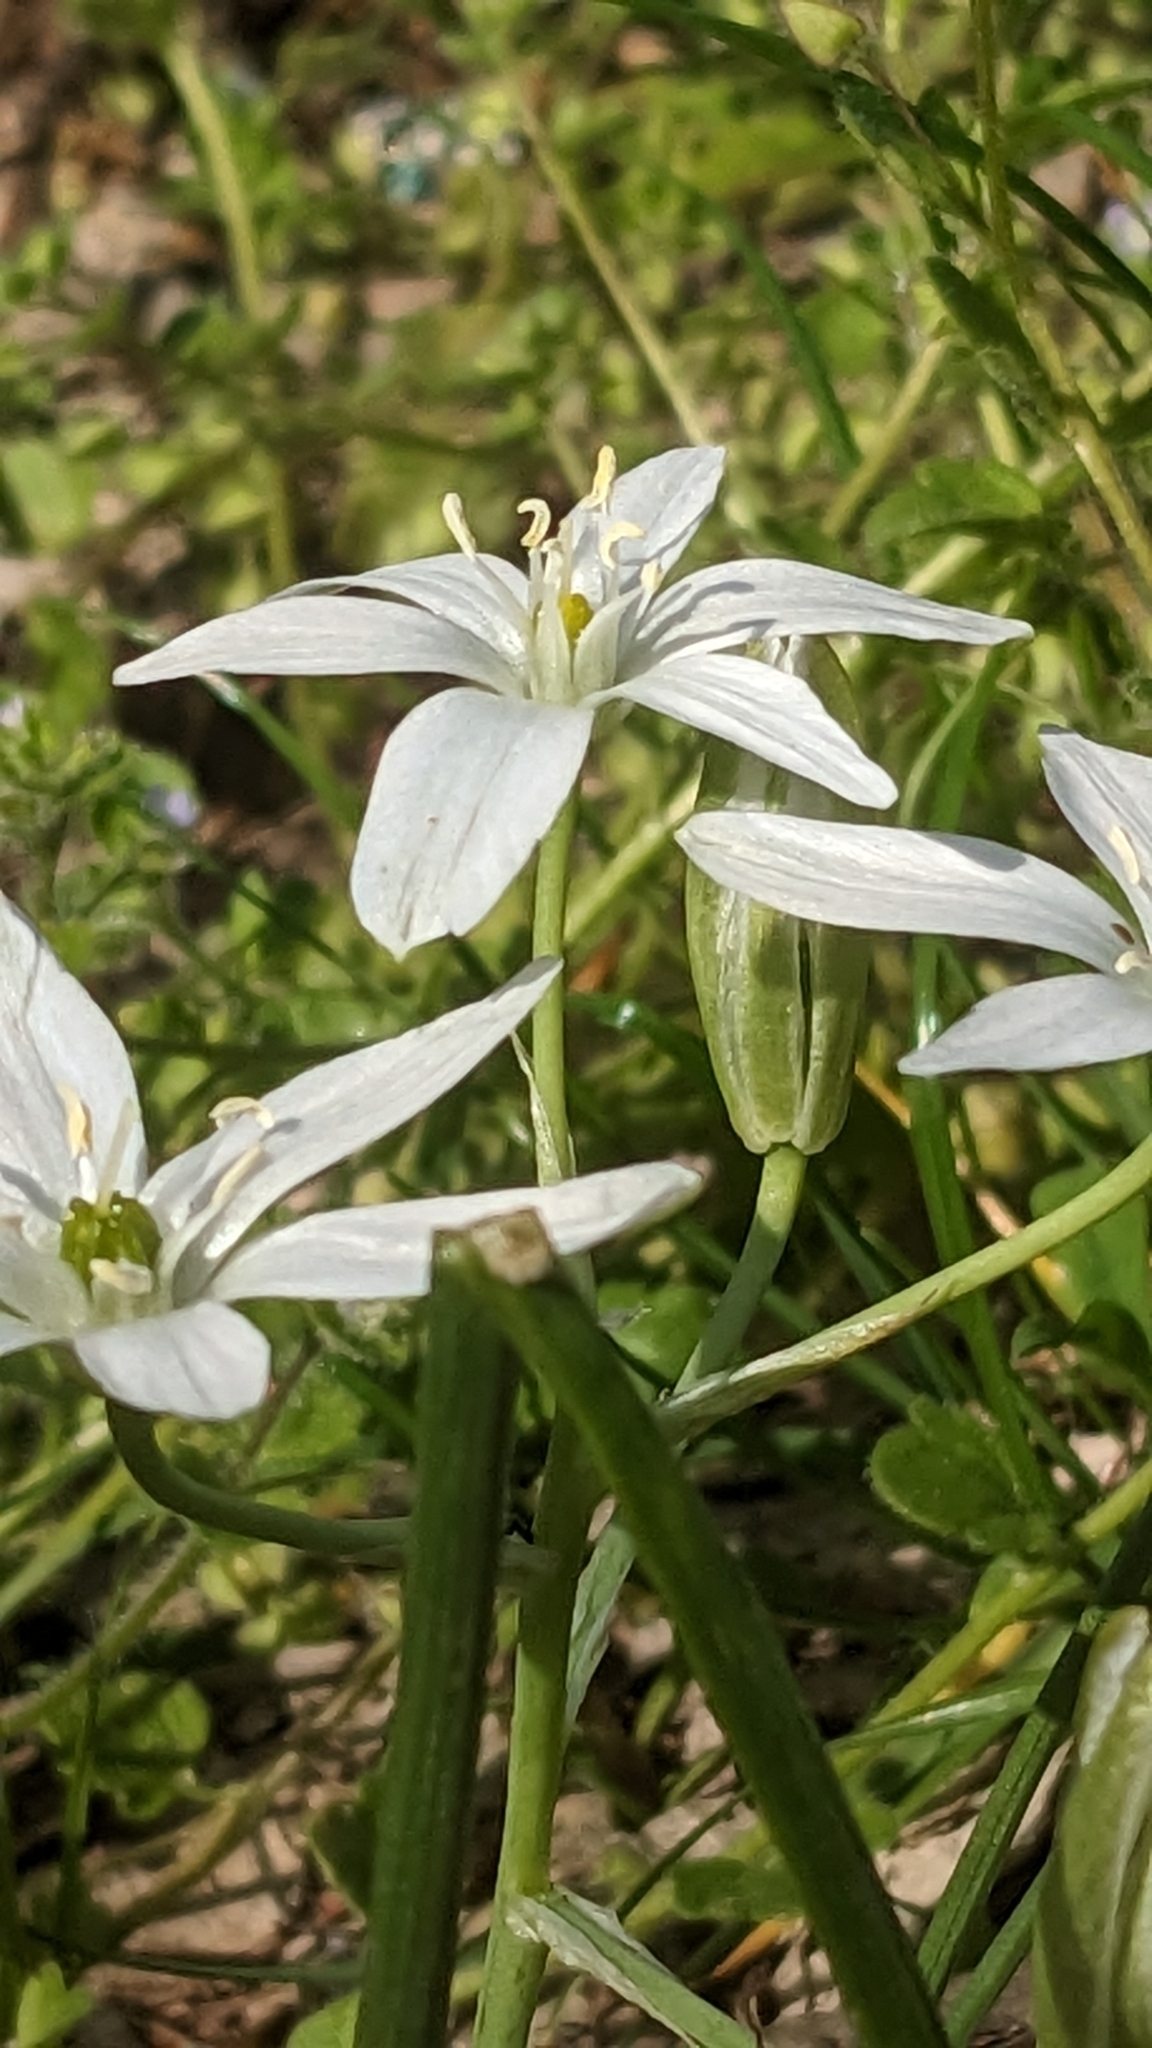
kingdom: Plantae
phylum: Tracheophyta
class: Liliopsida
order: Asparagales
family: Asparagaceae
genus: Ornithogalum
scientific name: Ornithogalum umbellatum
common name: Garden star-of-bethlehem
